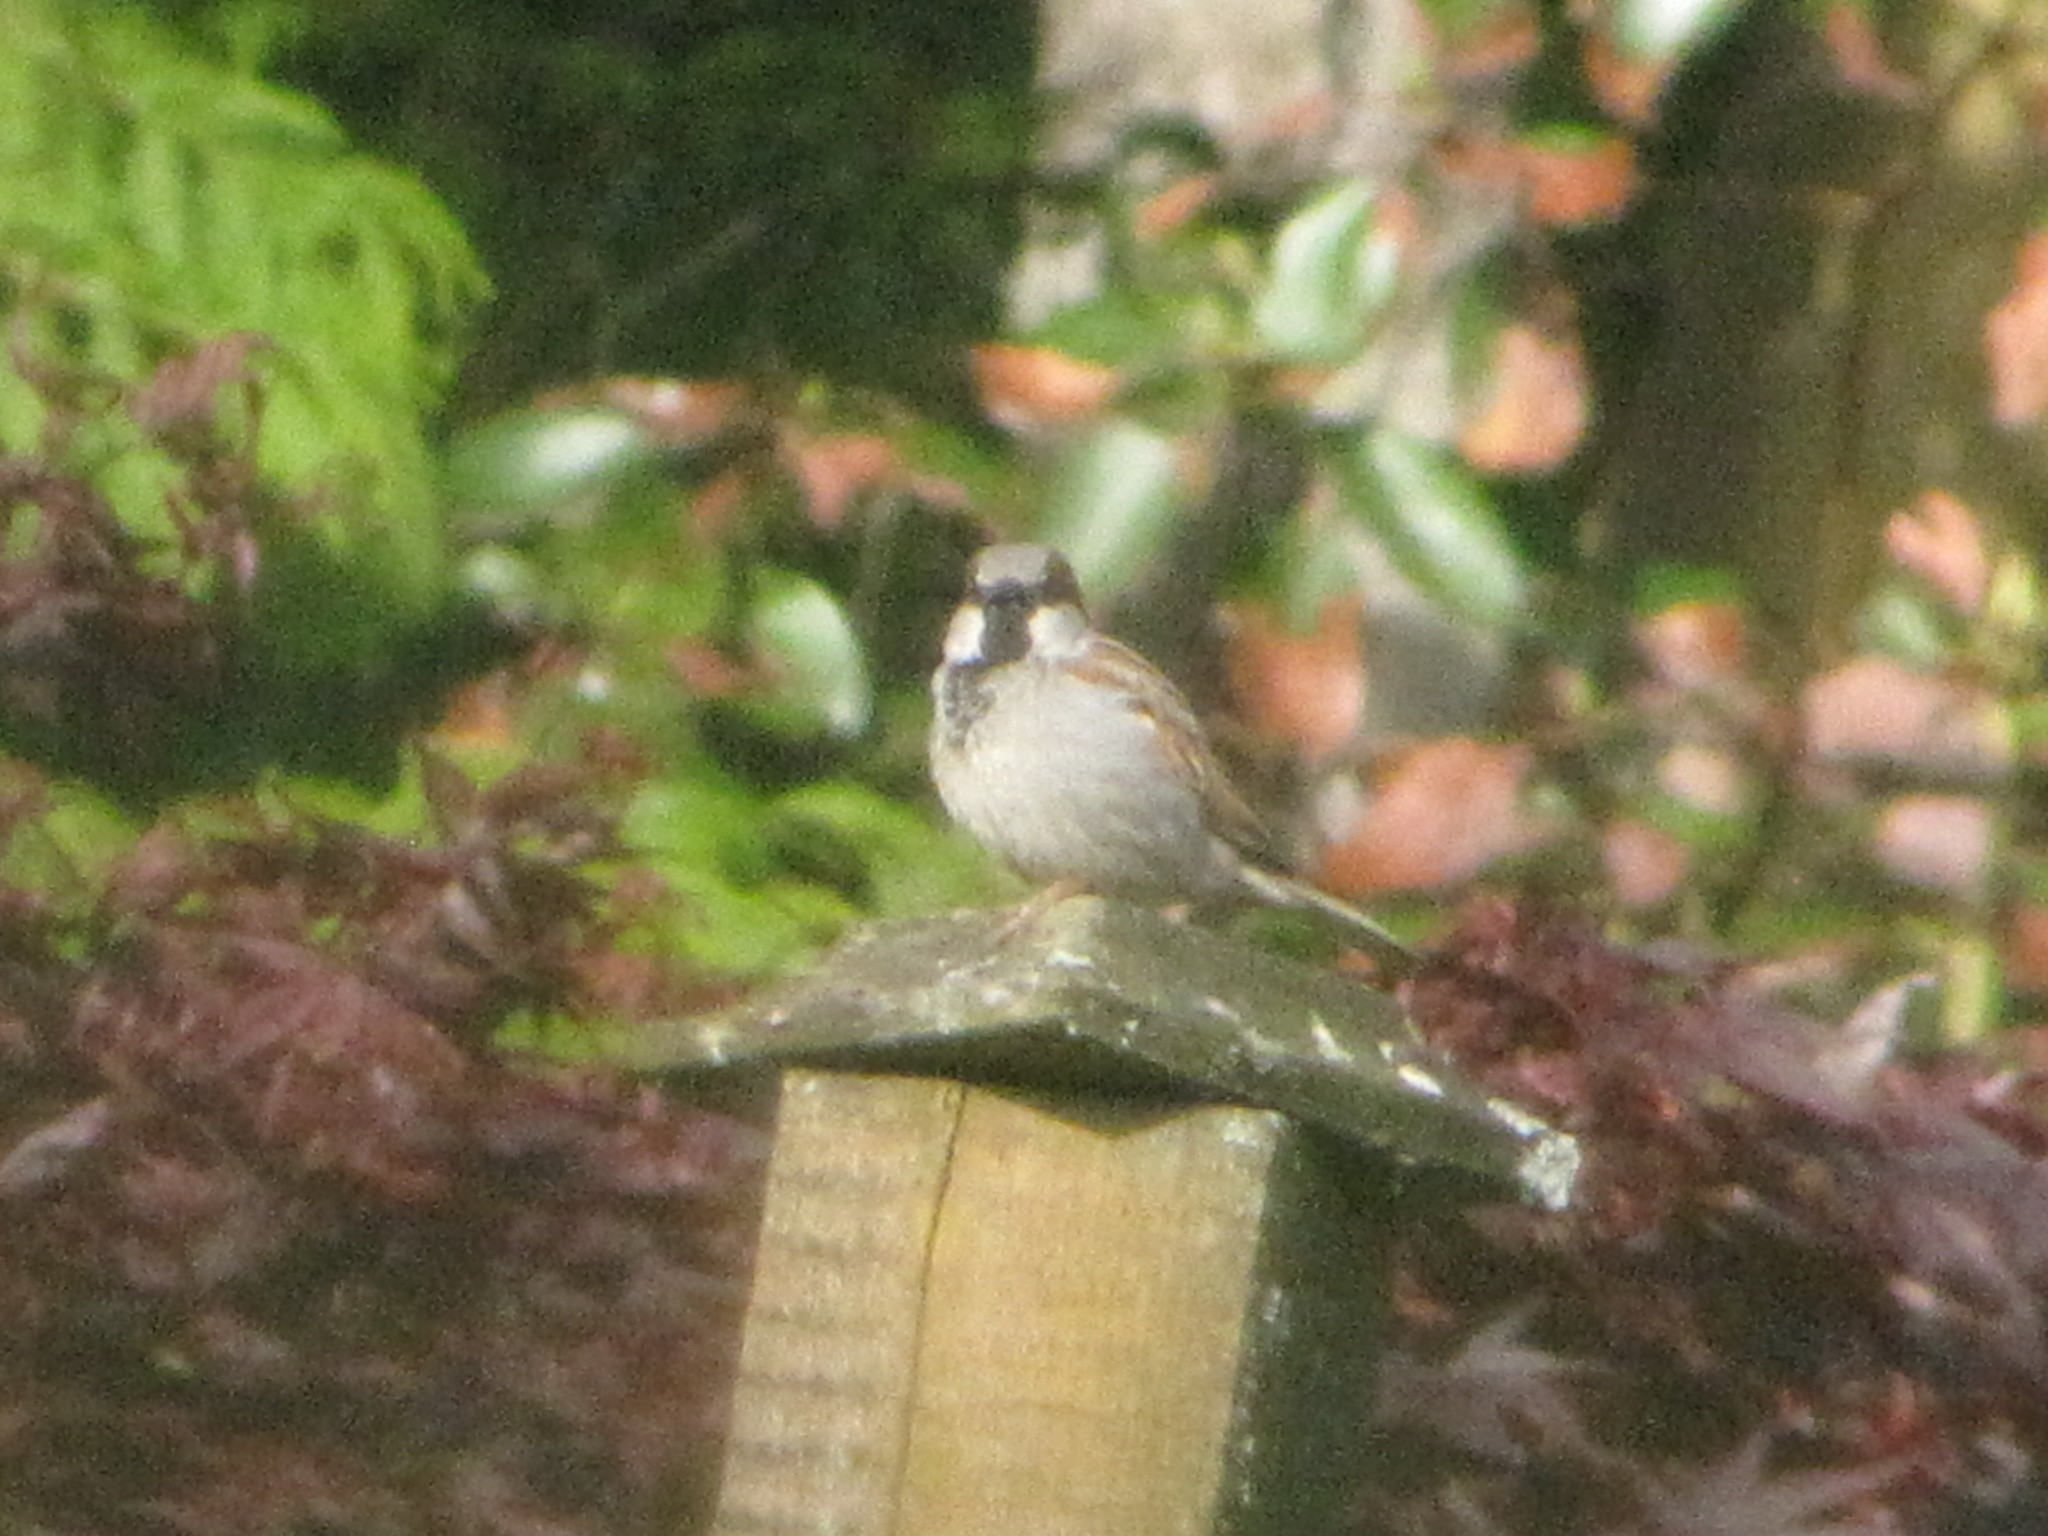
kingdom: Animalia
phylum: Chordata
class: Aves
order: Passeriformes
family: Passeridae
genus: Passer
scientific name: Passer domesticus
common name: House sparrow
